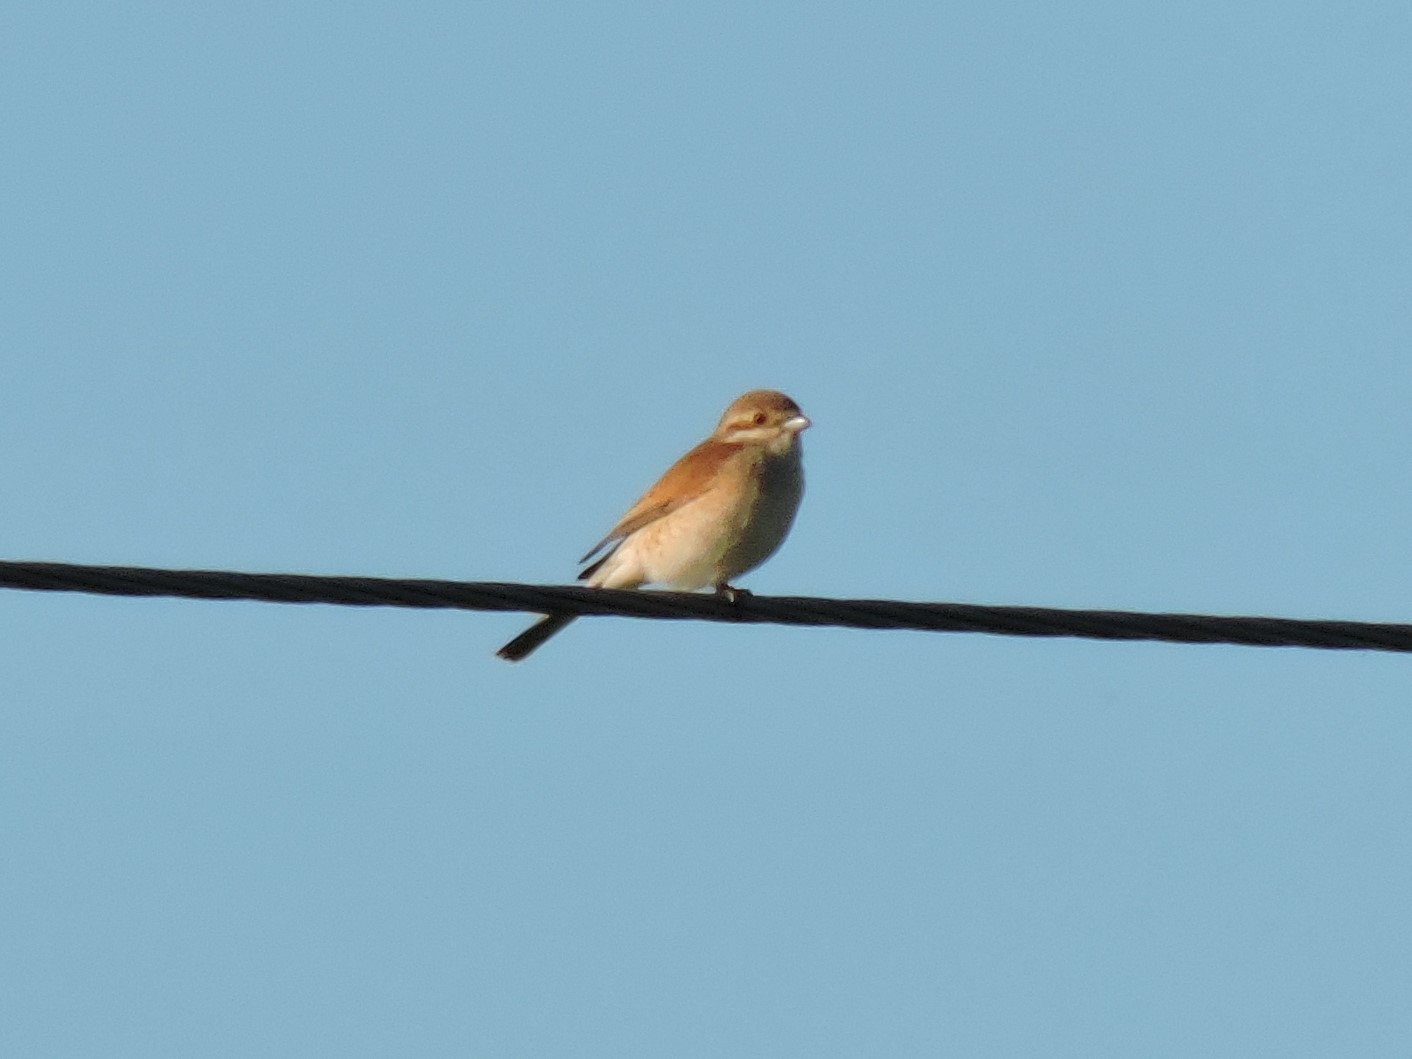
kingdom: Animalia
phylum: Chordata
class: Aves
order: Passeriformes
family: Laniidae
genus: Lanius
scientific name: Lanius collurio
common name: Red-backed shrike
